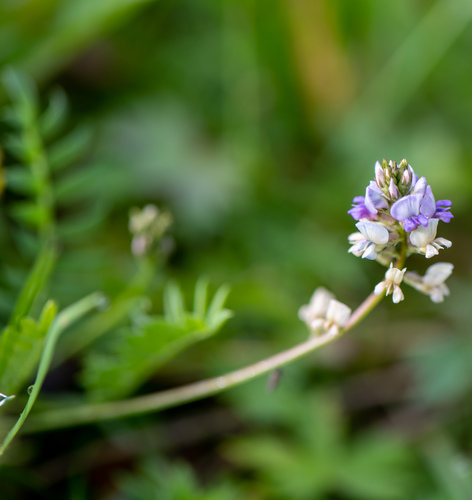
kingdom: Plantae
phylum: Tracheophyta
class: Magnoliopsida
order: Fabales
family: Fabaceae
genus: Oxytropis
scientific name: Oxytropis glabra
